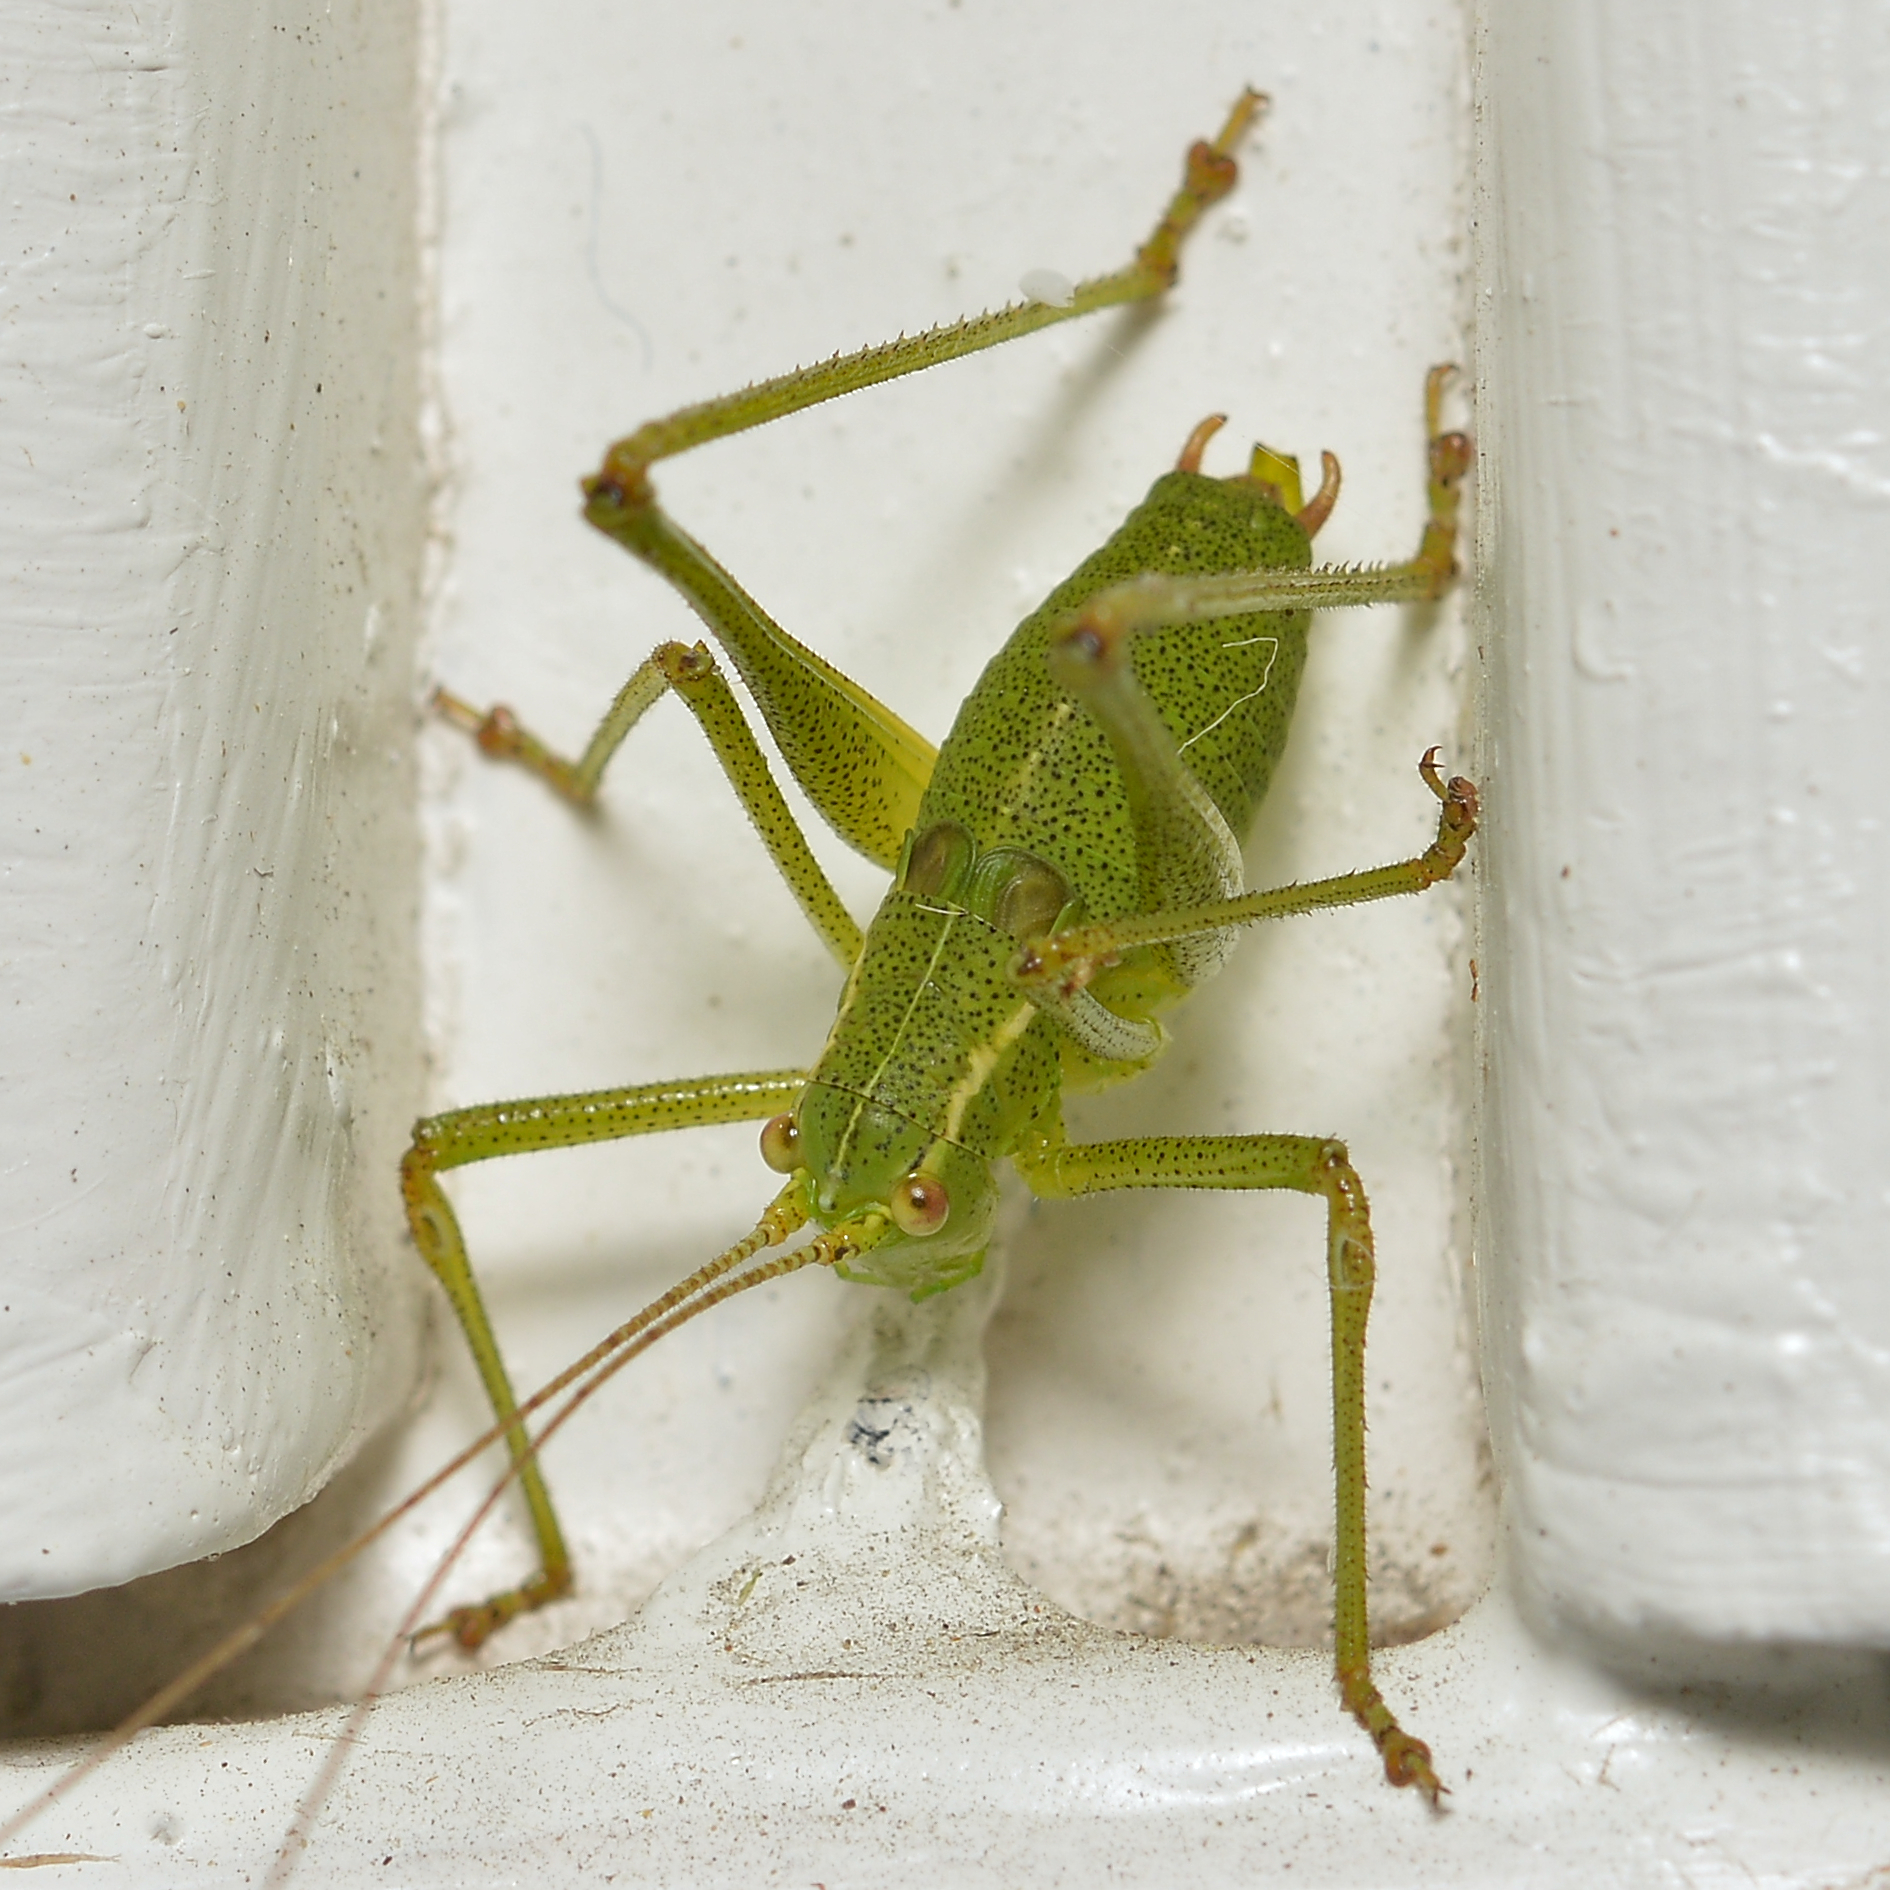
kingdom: Animalia
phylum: Arthropoda
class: Insecta
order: Orthoptera
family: Tettigoniidae
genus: Leptophyes
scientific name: Leptophyes punctatissima
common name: Speckled bush-cricket
